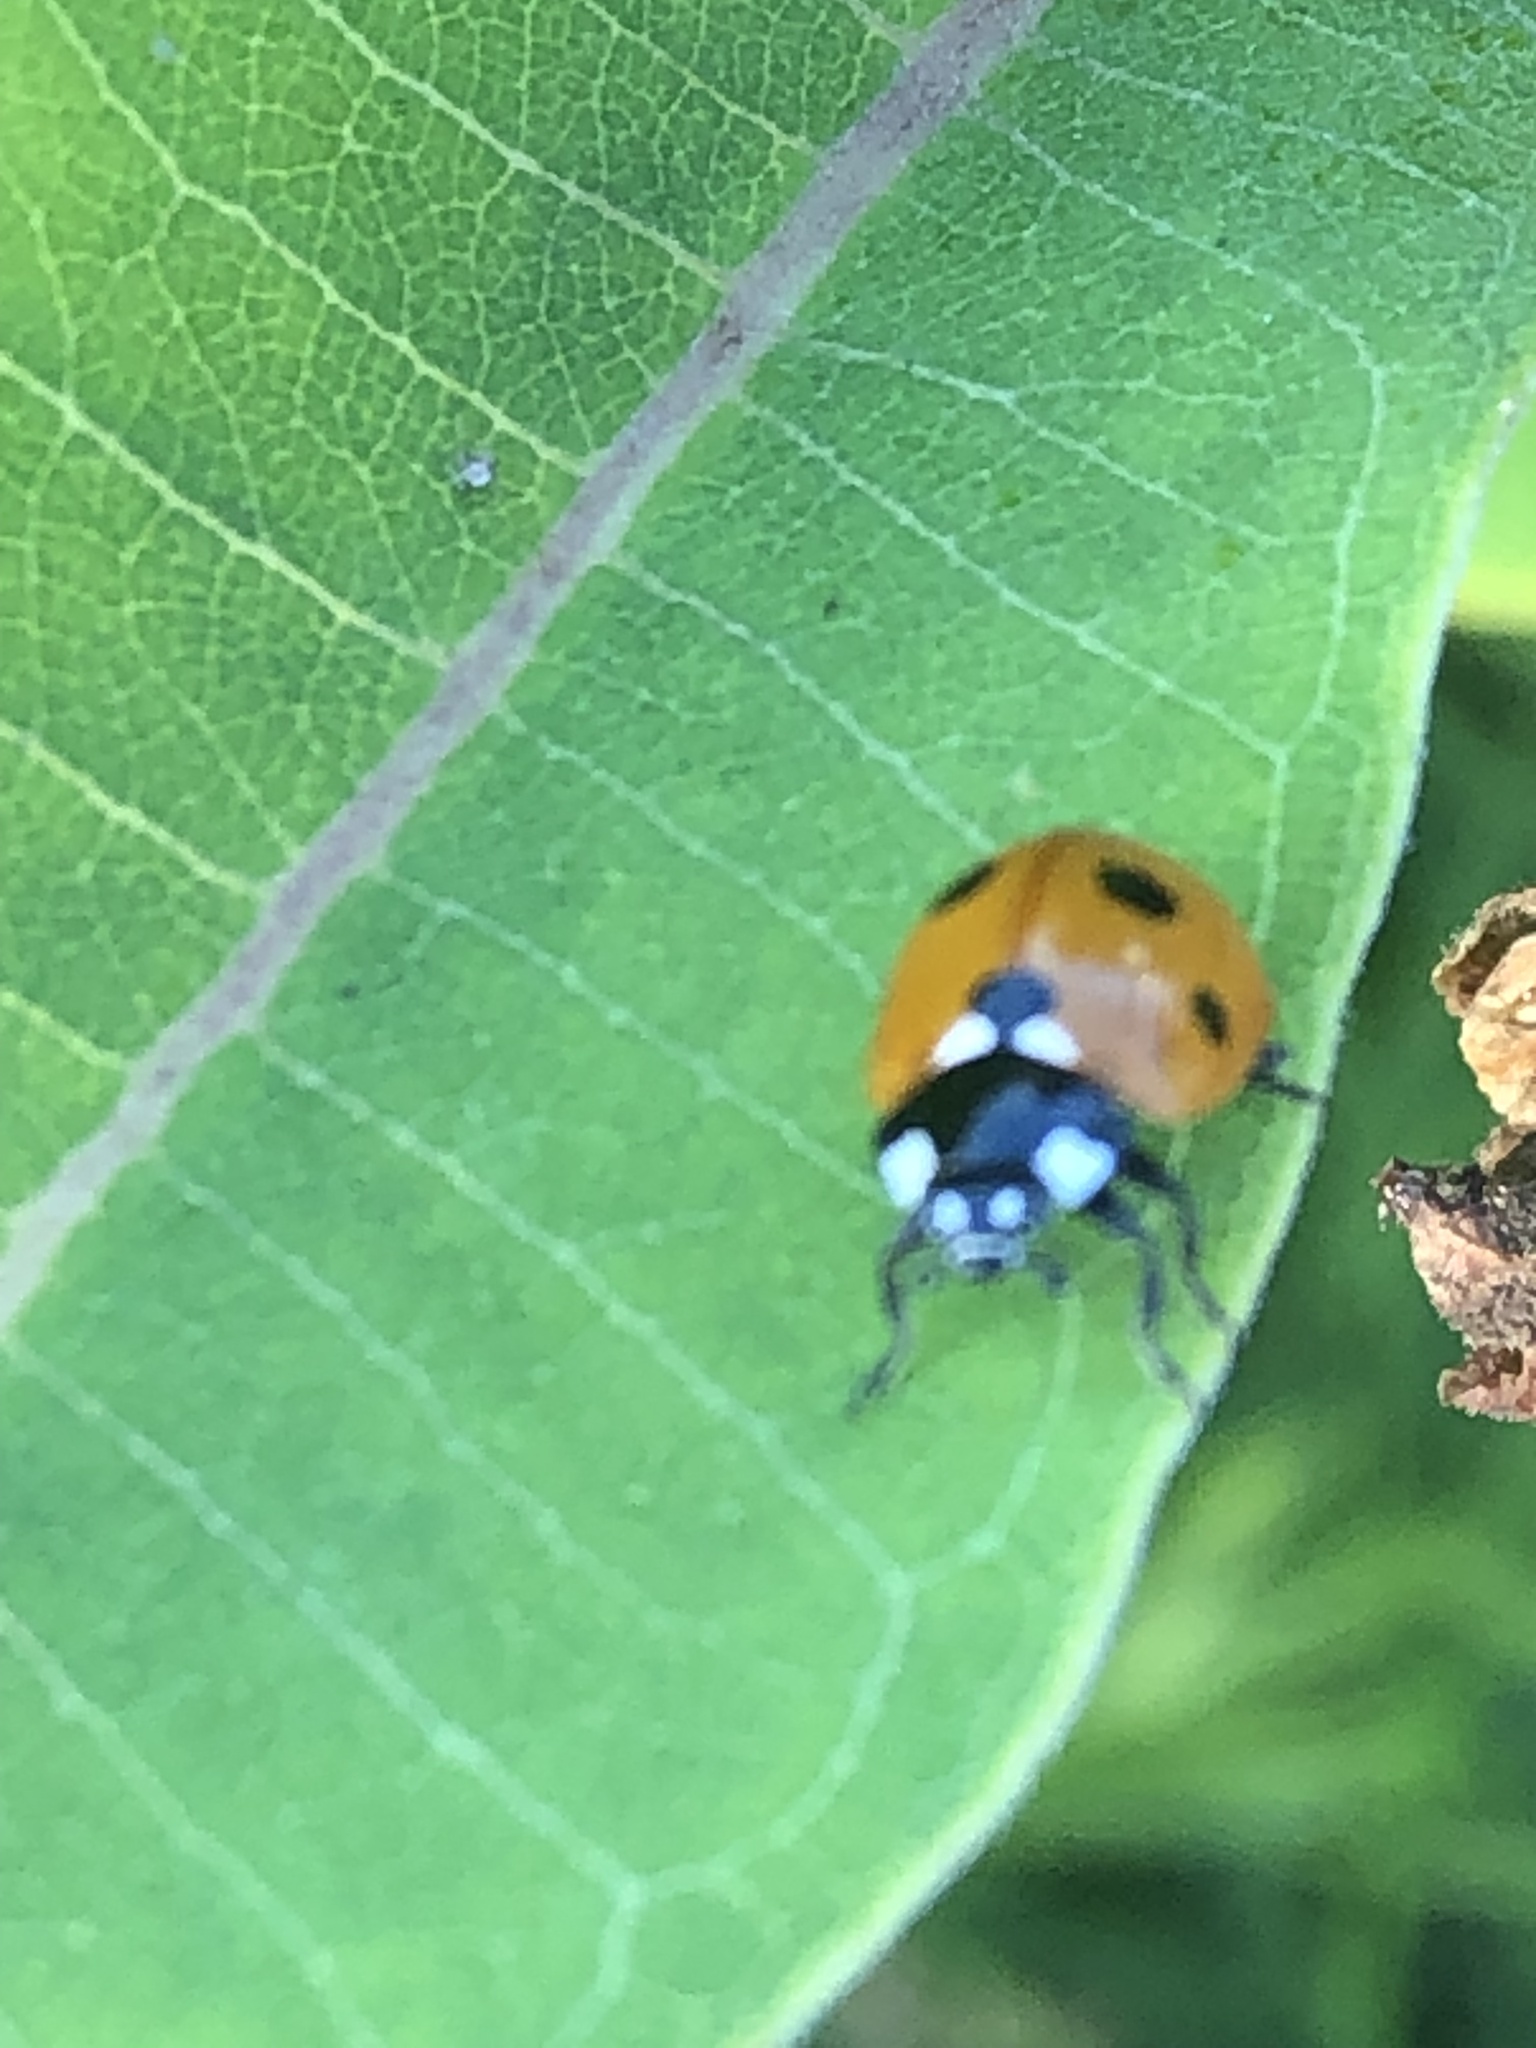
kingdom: Animalia
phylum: Arthropoda
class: Insecta
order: Coleoptera
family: Coccinellidae
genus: Coccinella
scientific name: Coccinella septempunctata
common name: Sevenspotted lady beetle
